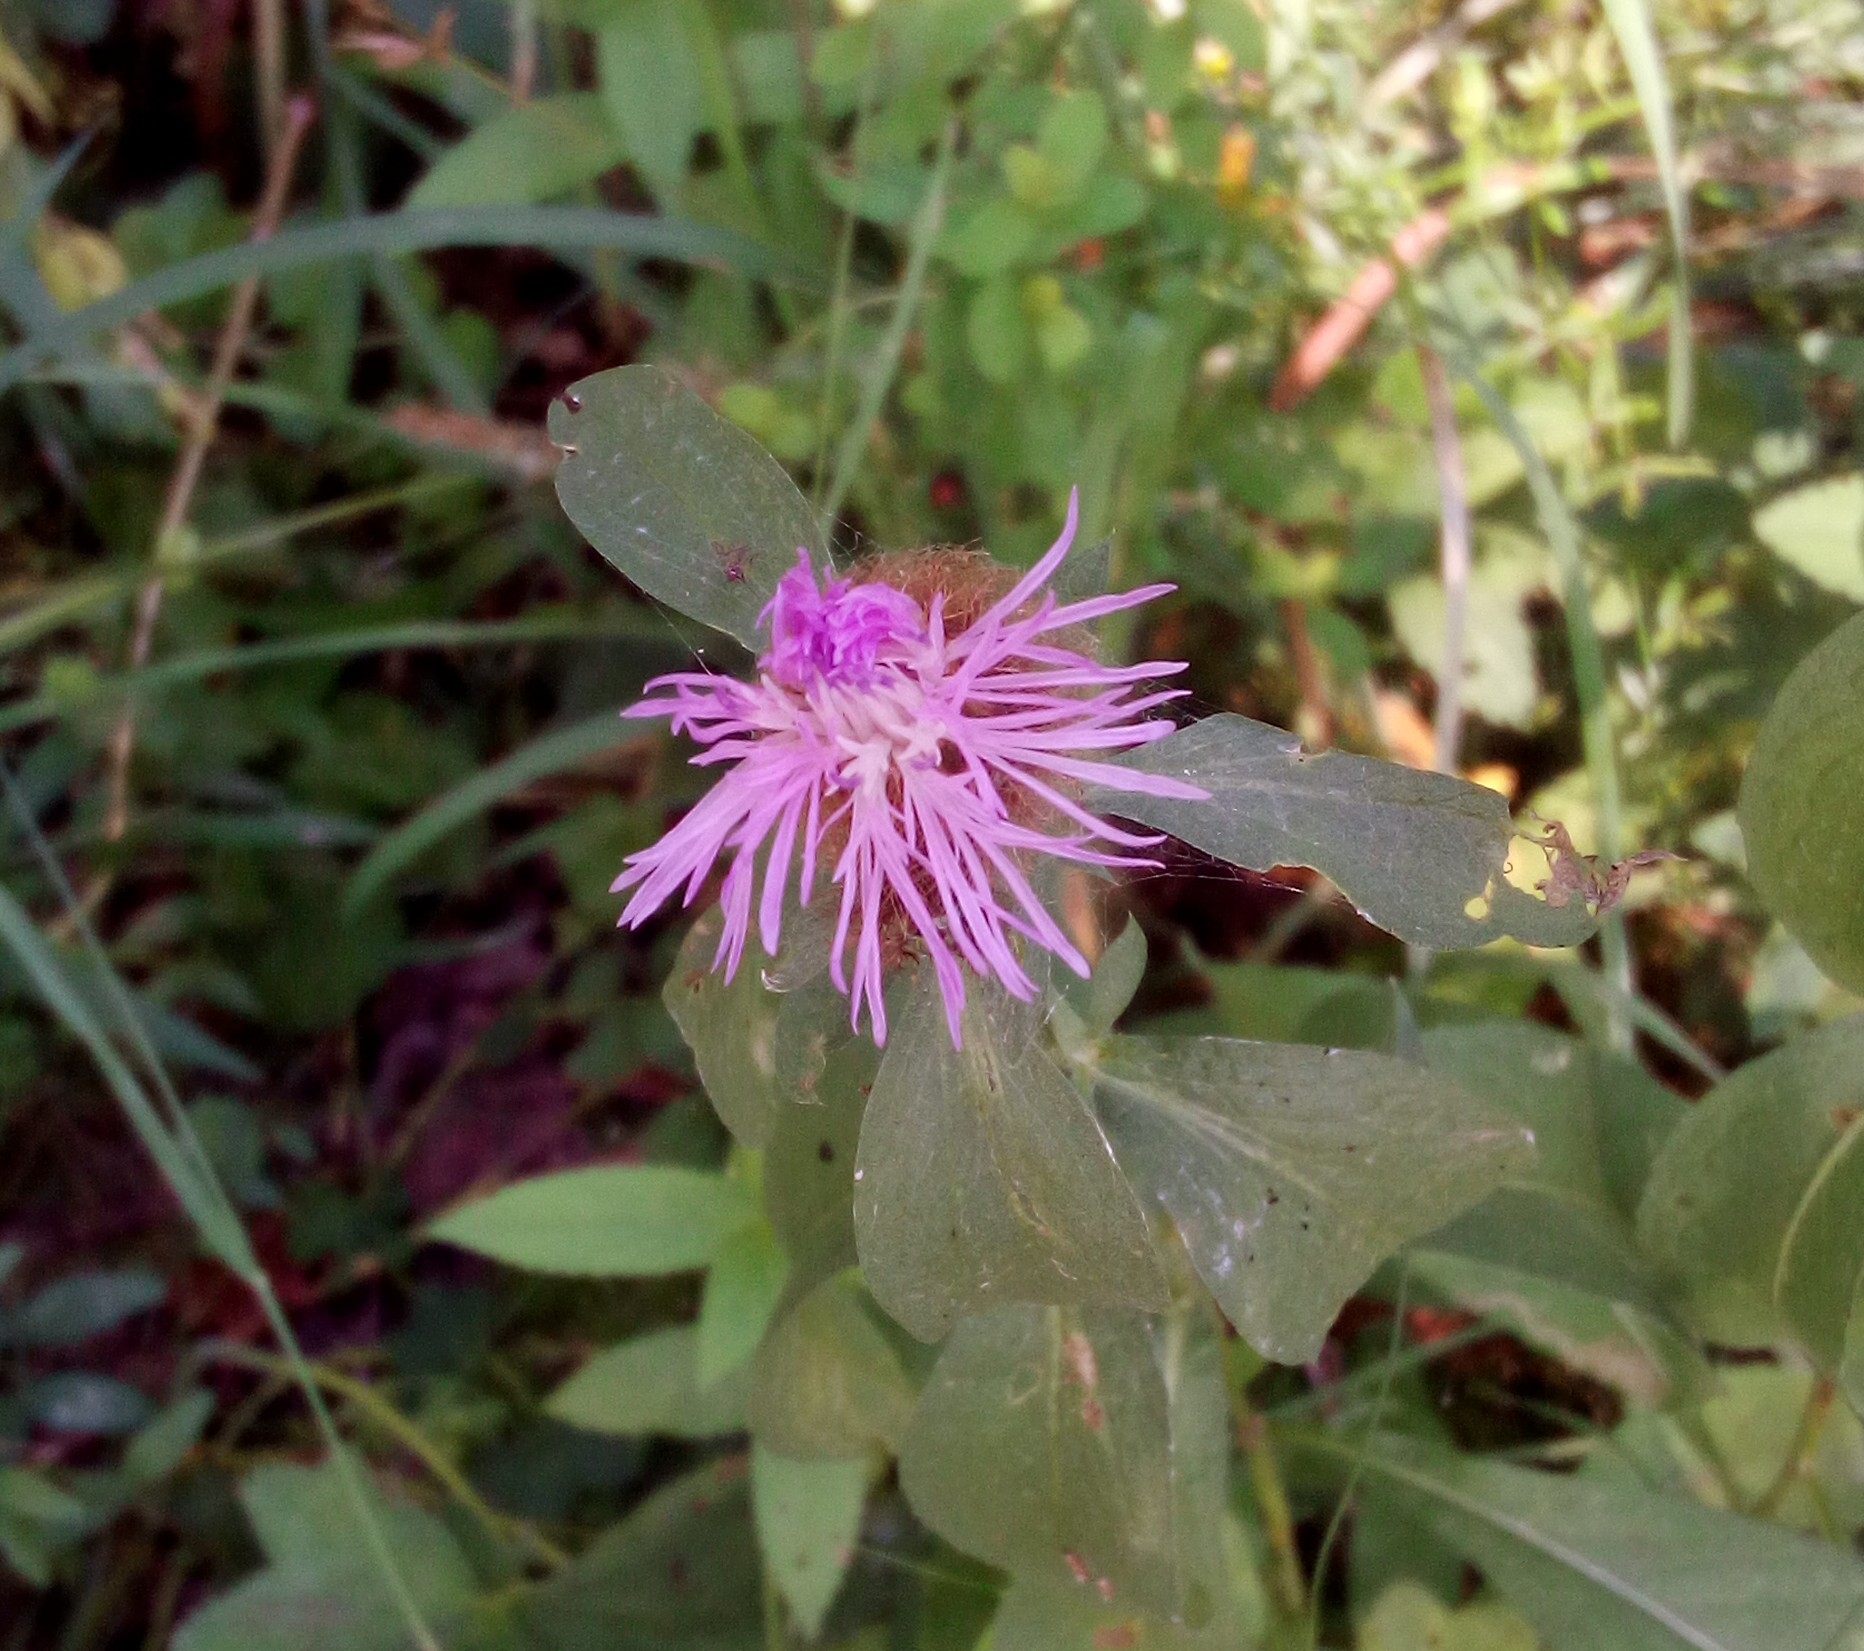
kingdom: Plantae
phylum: Tracheophyta
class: Magnoliopsida
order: Asterales
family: Asteraceae
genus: Centaurea
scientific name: Centaurea jacea
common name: Brown knapweed
